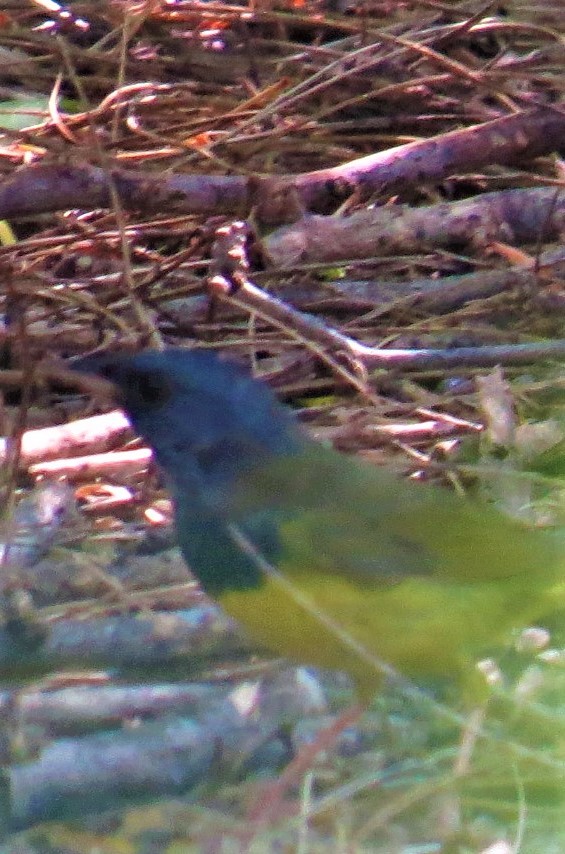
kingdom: Animalia
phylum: Chordata
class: Aves
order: Passeriformes
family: Parulidae
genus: Geothlypis
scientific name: Geothlypis philadelphia
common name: Mourning warbler
